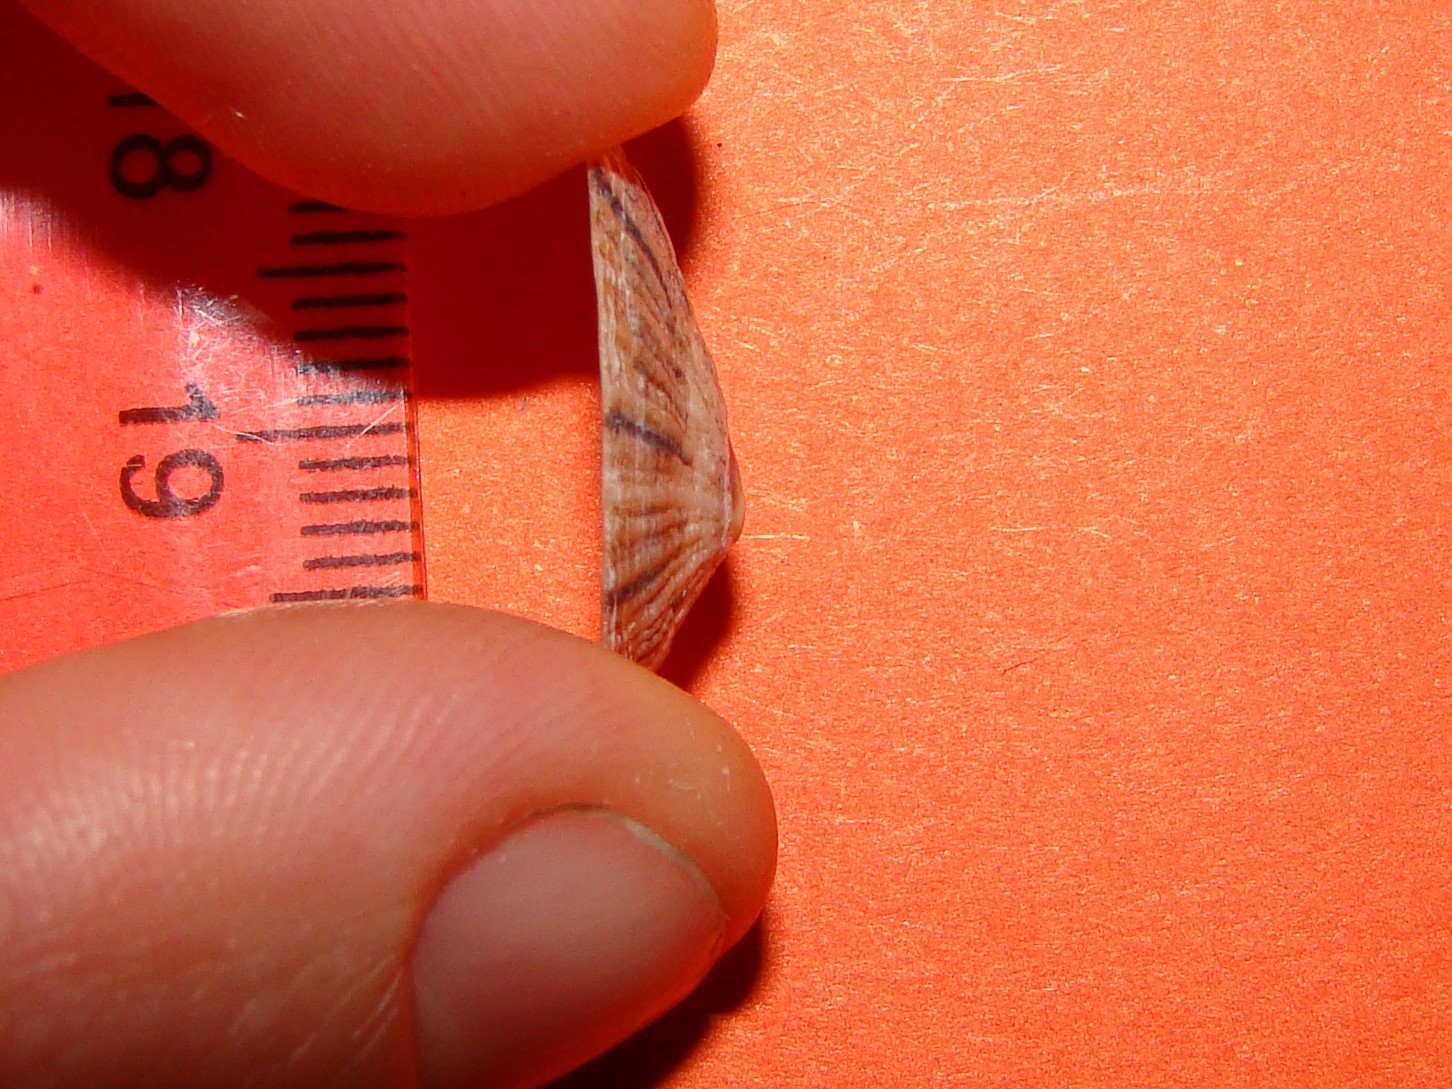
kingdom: Animalia
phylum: Mollusca
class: Gastropoda
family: Nacellidae
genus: Cellana
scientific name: Cellana stellifera
